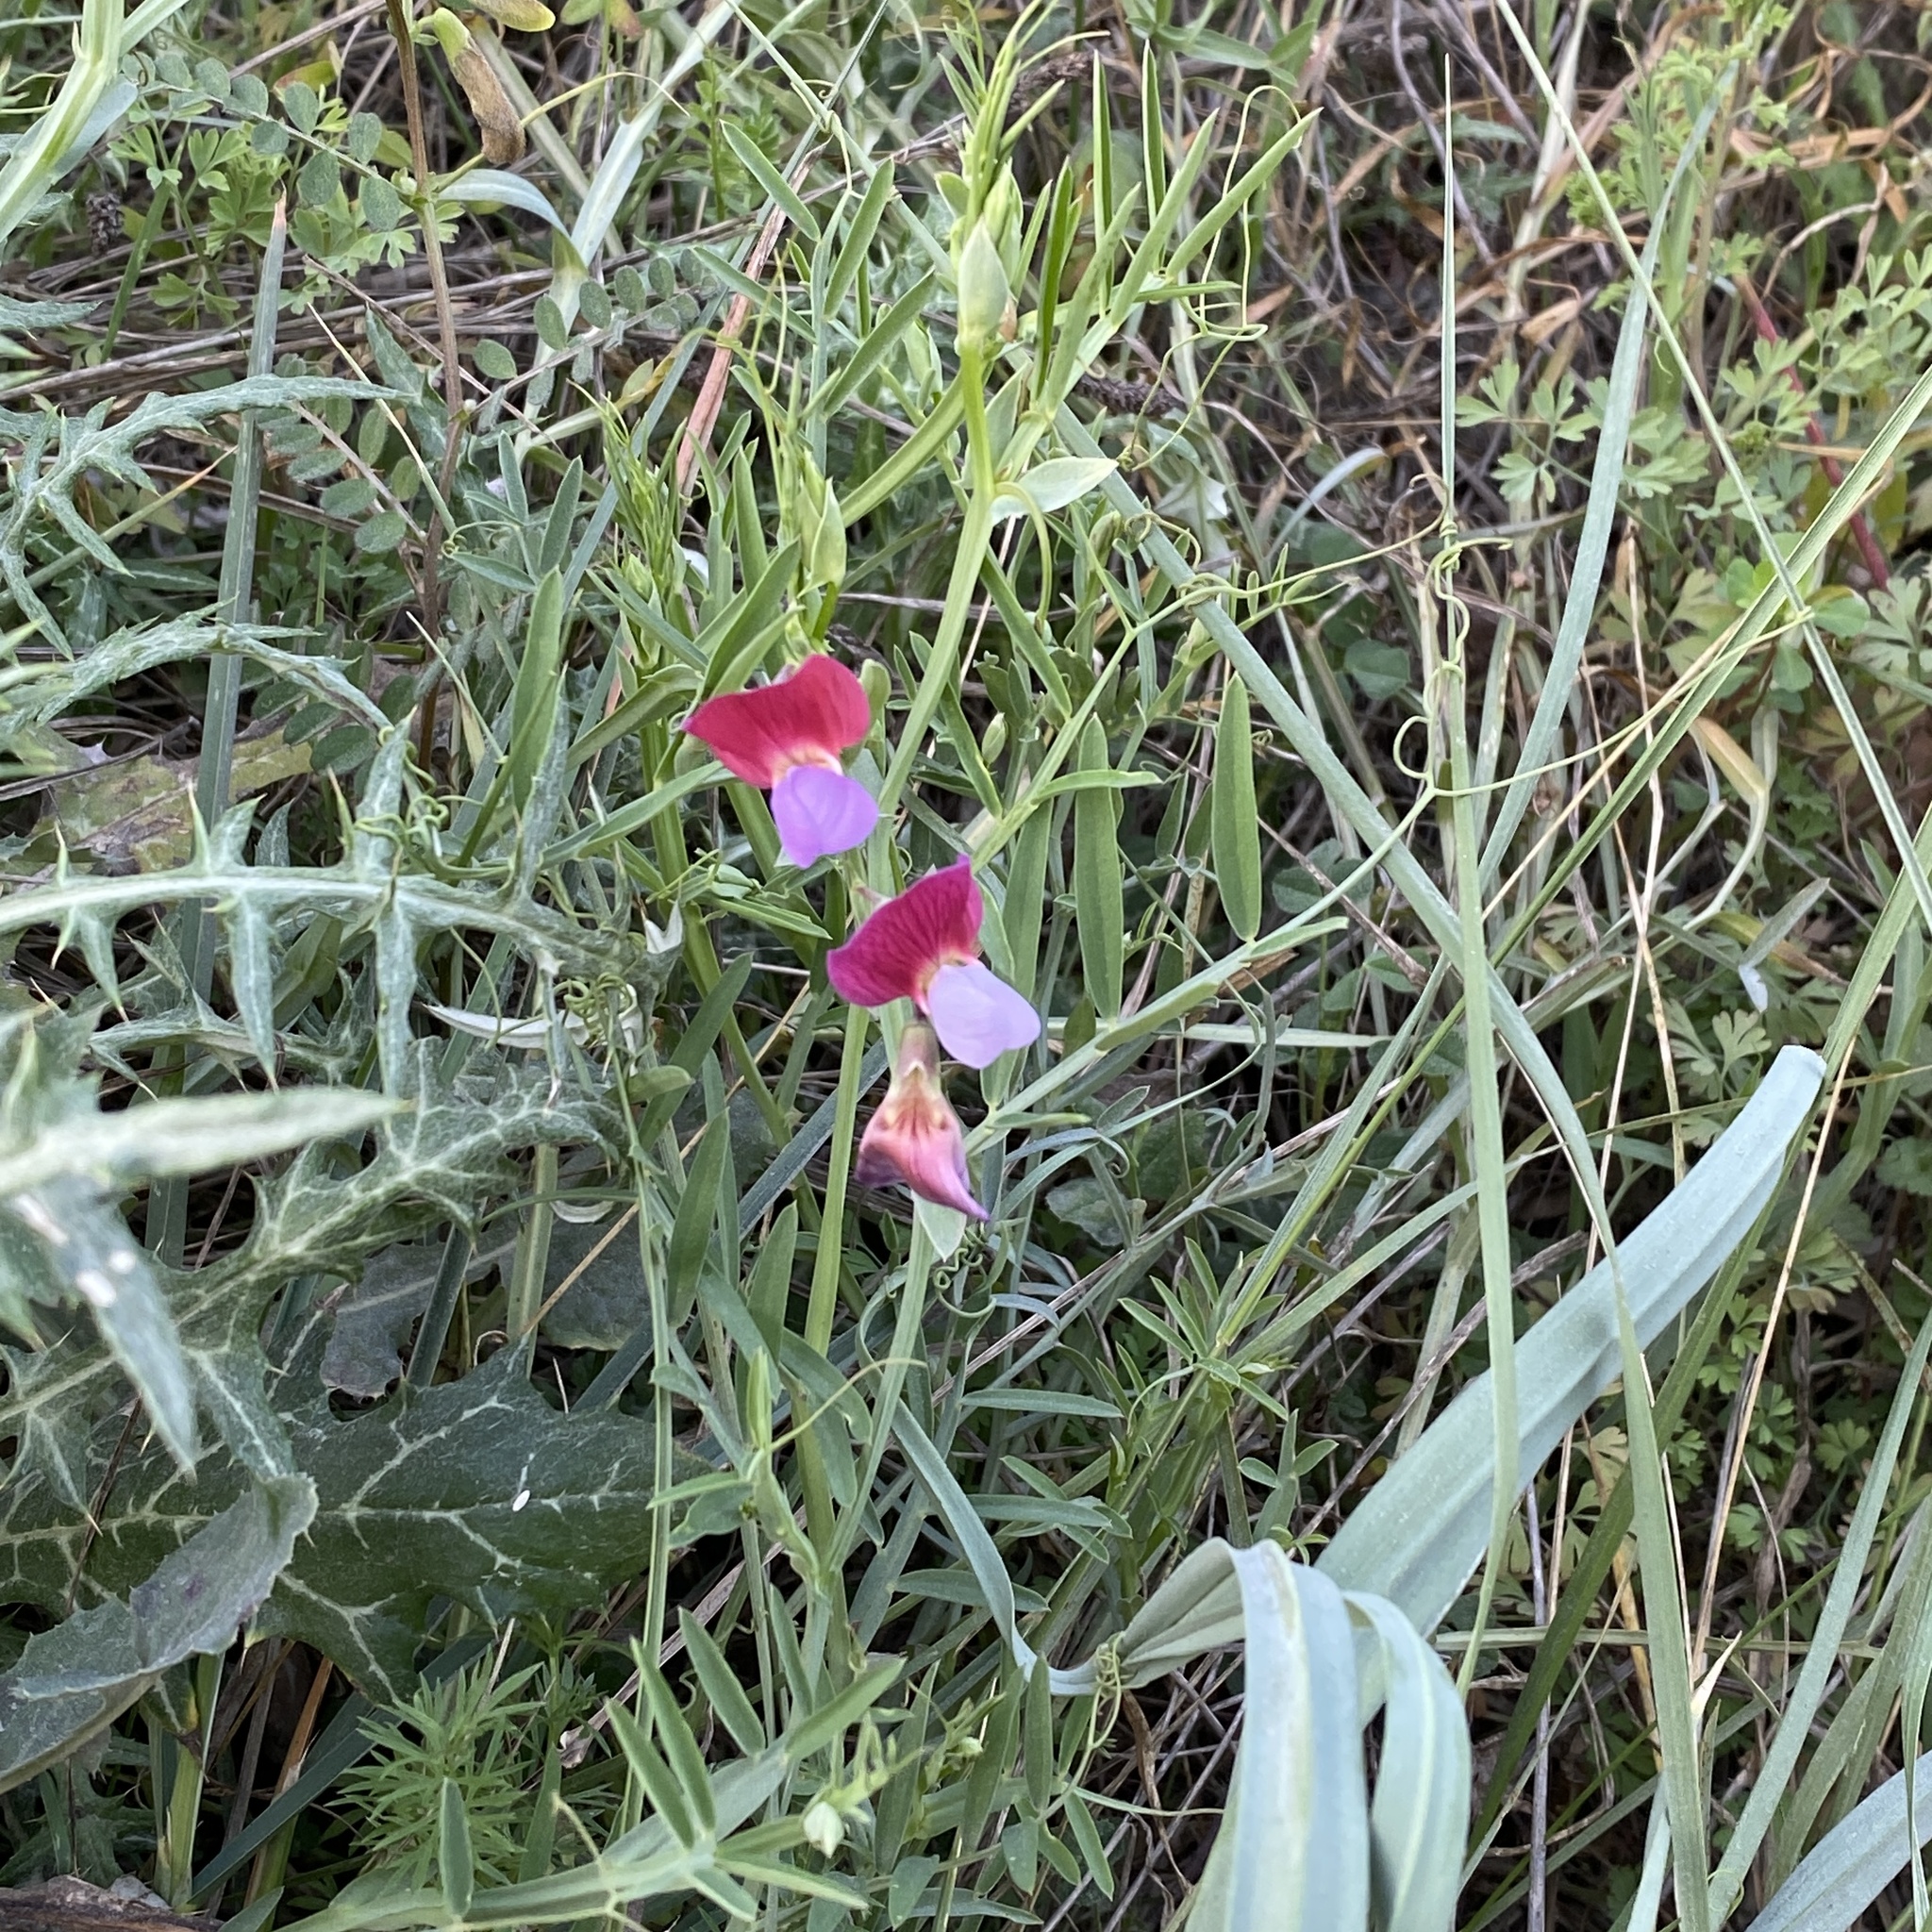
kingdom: Plantae
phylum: Tracheophyta
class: Magnoliopsida
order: Fabales
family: Fabaceae
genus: Lathyrus
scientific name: Lathyrus clymenum
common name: Spanish vetchling
